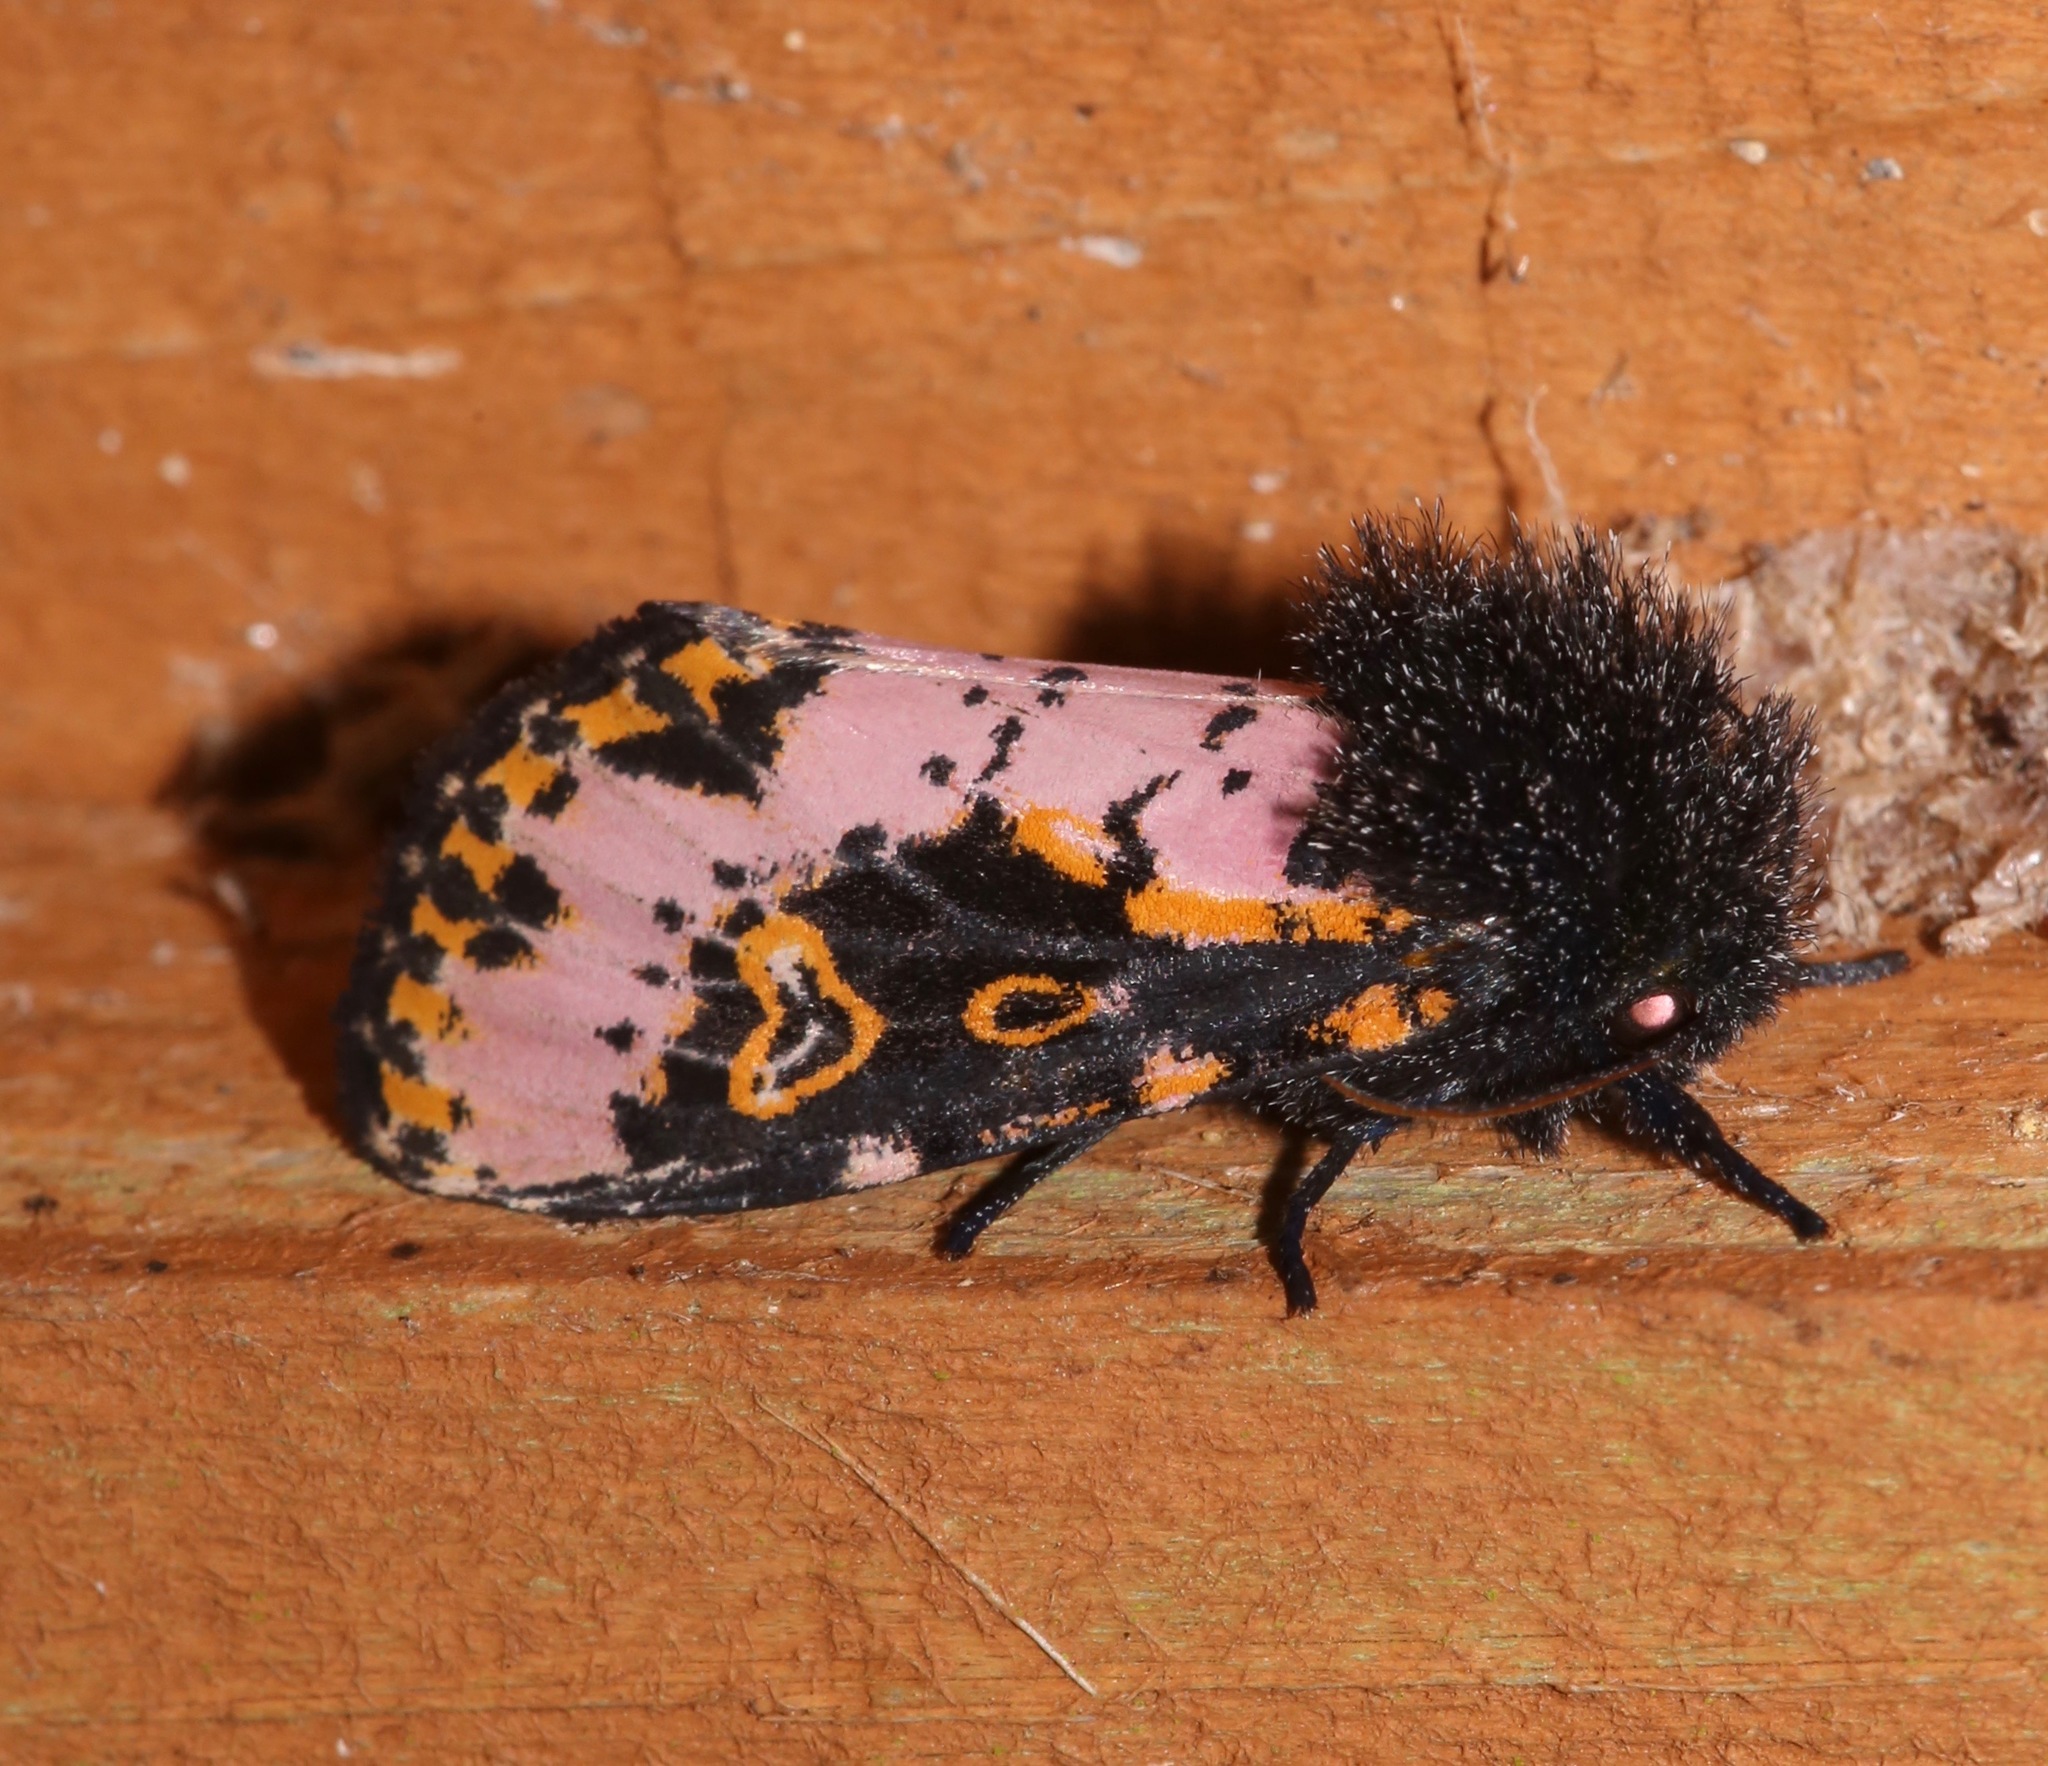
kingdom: Animalia
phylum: Arthropoda
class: Insecta
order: Lepidoptera
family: Noctuidae
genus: Xanthopastis
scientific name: Xanthopastis regnatrix
